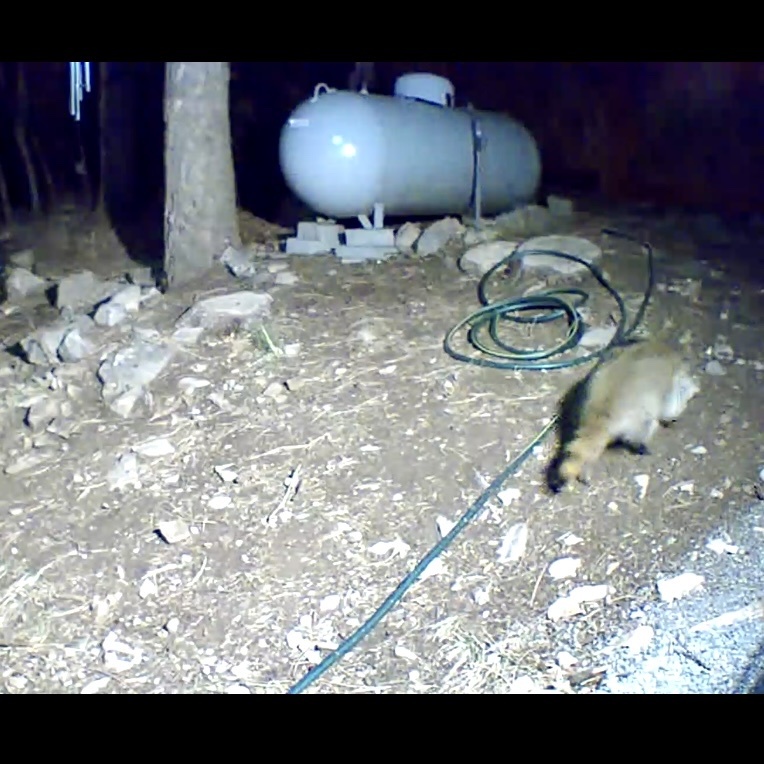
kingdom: Animalia
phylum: Chordata
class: Mammalia
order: Carnivora
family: Procyonidae
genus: Procyon
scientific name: Procyon lotor
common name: Raccoon
